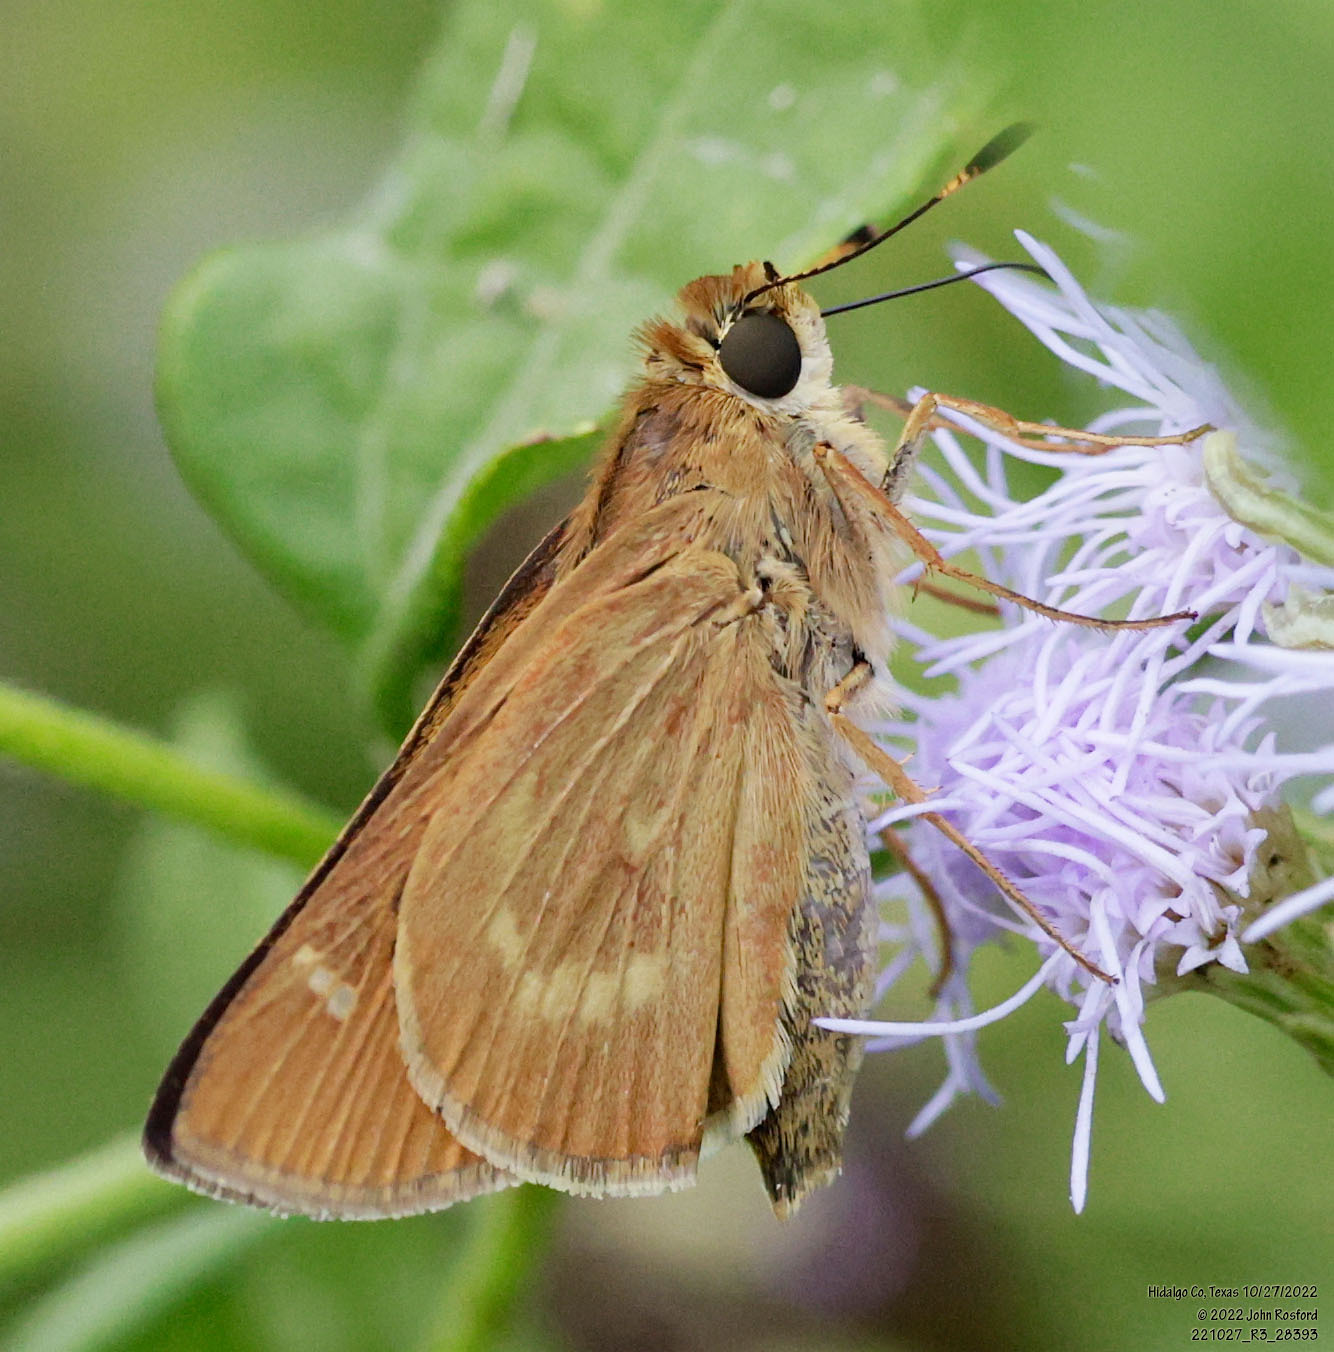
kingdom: Animalia
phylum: Arthropoda
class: Insecta
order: Lepidoptera
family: Hesperiidae
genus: Mellana
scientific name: Mellana eulogius
